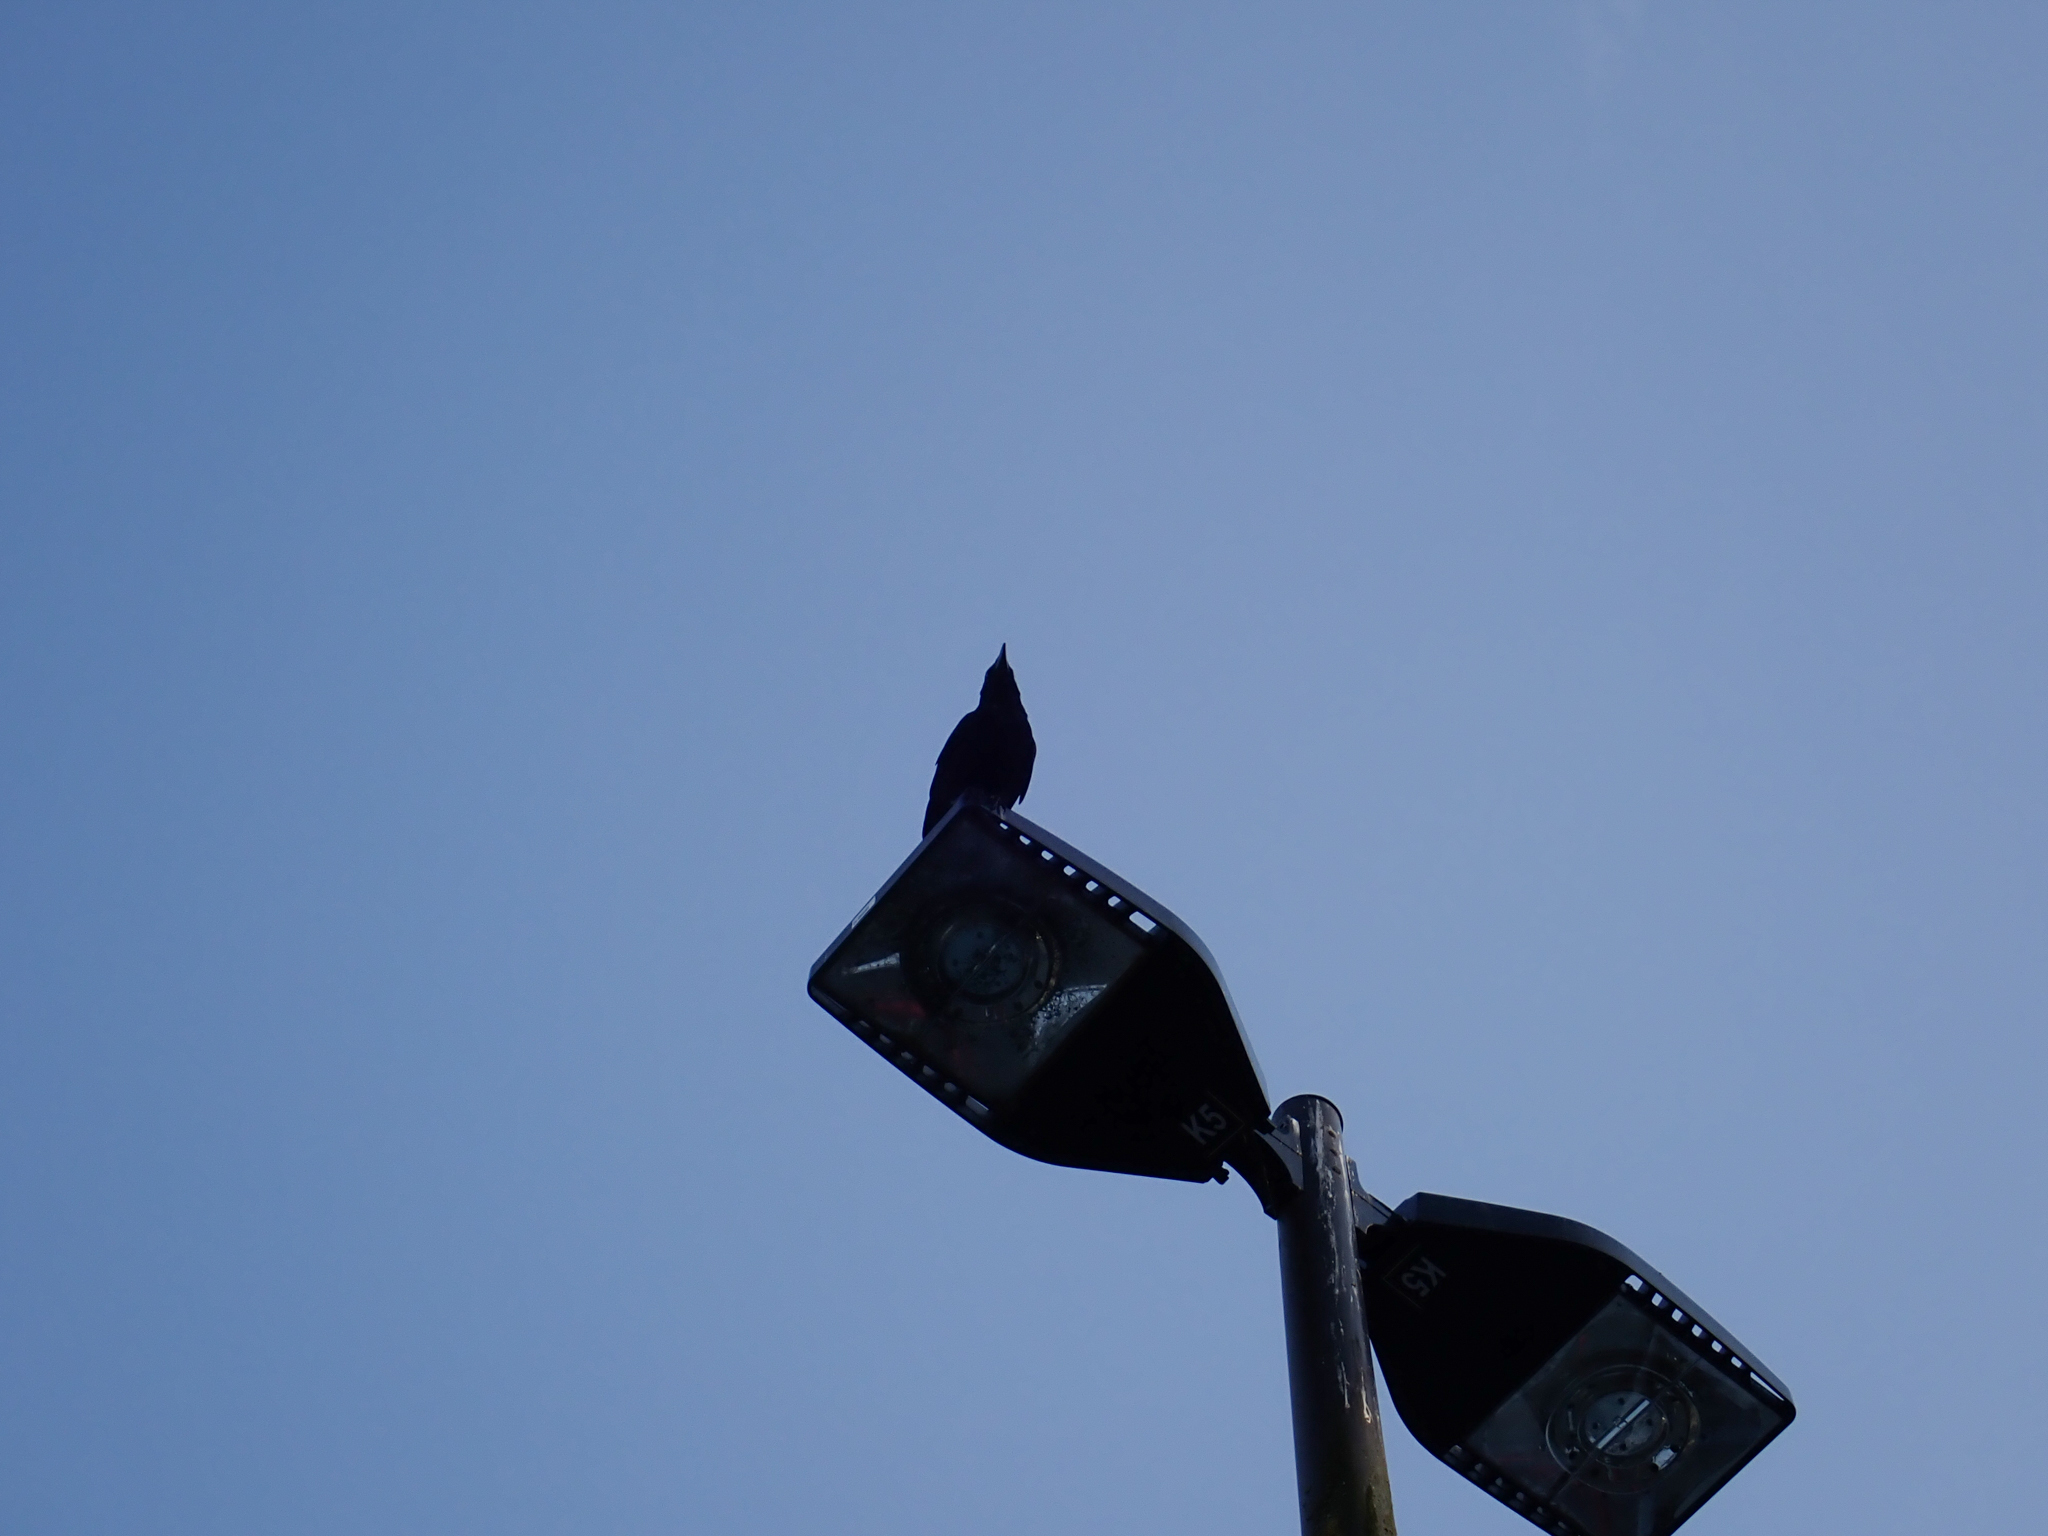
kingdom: Animalia
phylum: Chordata
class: Aves
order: Passeriformes
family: Corvidae
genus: Corvus
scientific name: Corvus brachyrhynchos
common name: American crow
